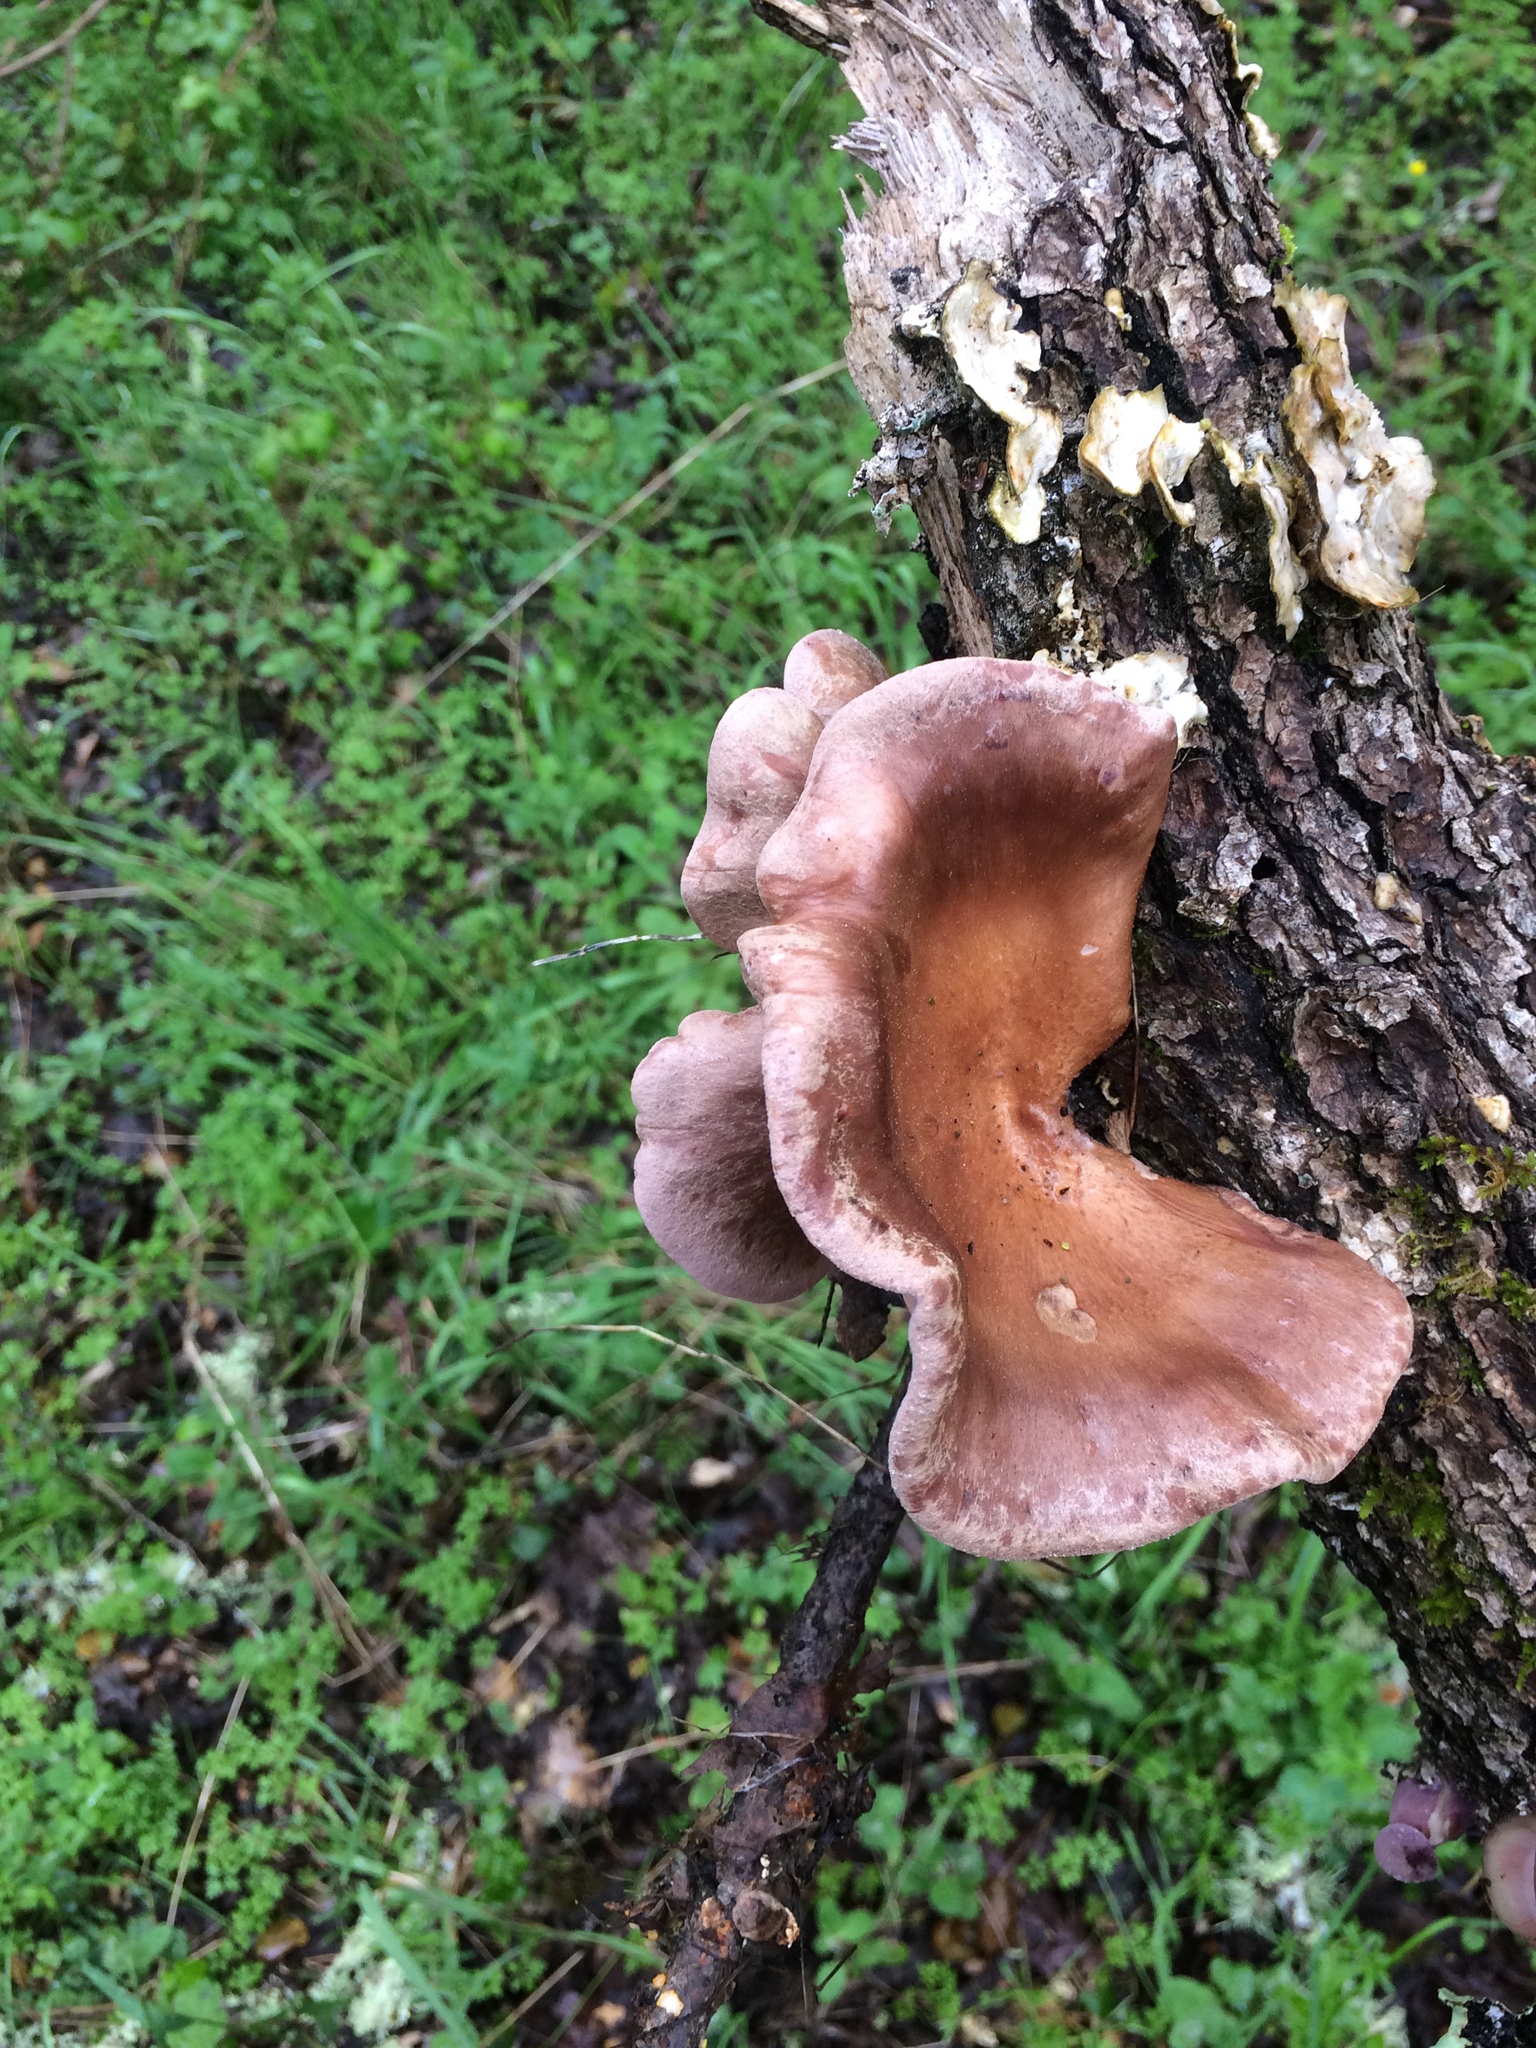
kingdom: Fungi
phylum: Basidiomycota
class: Agaricomycetes
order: Polyporales
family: Panaceae
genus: Panus
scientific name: Panus conchatus
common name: Lilac oysterling
